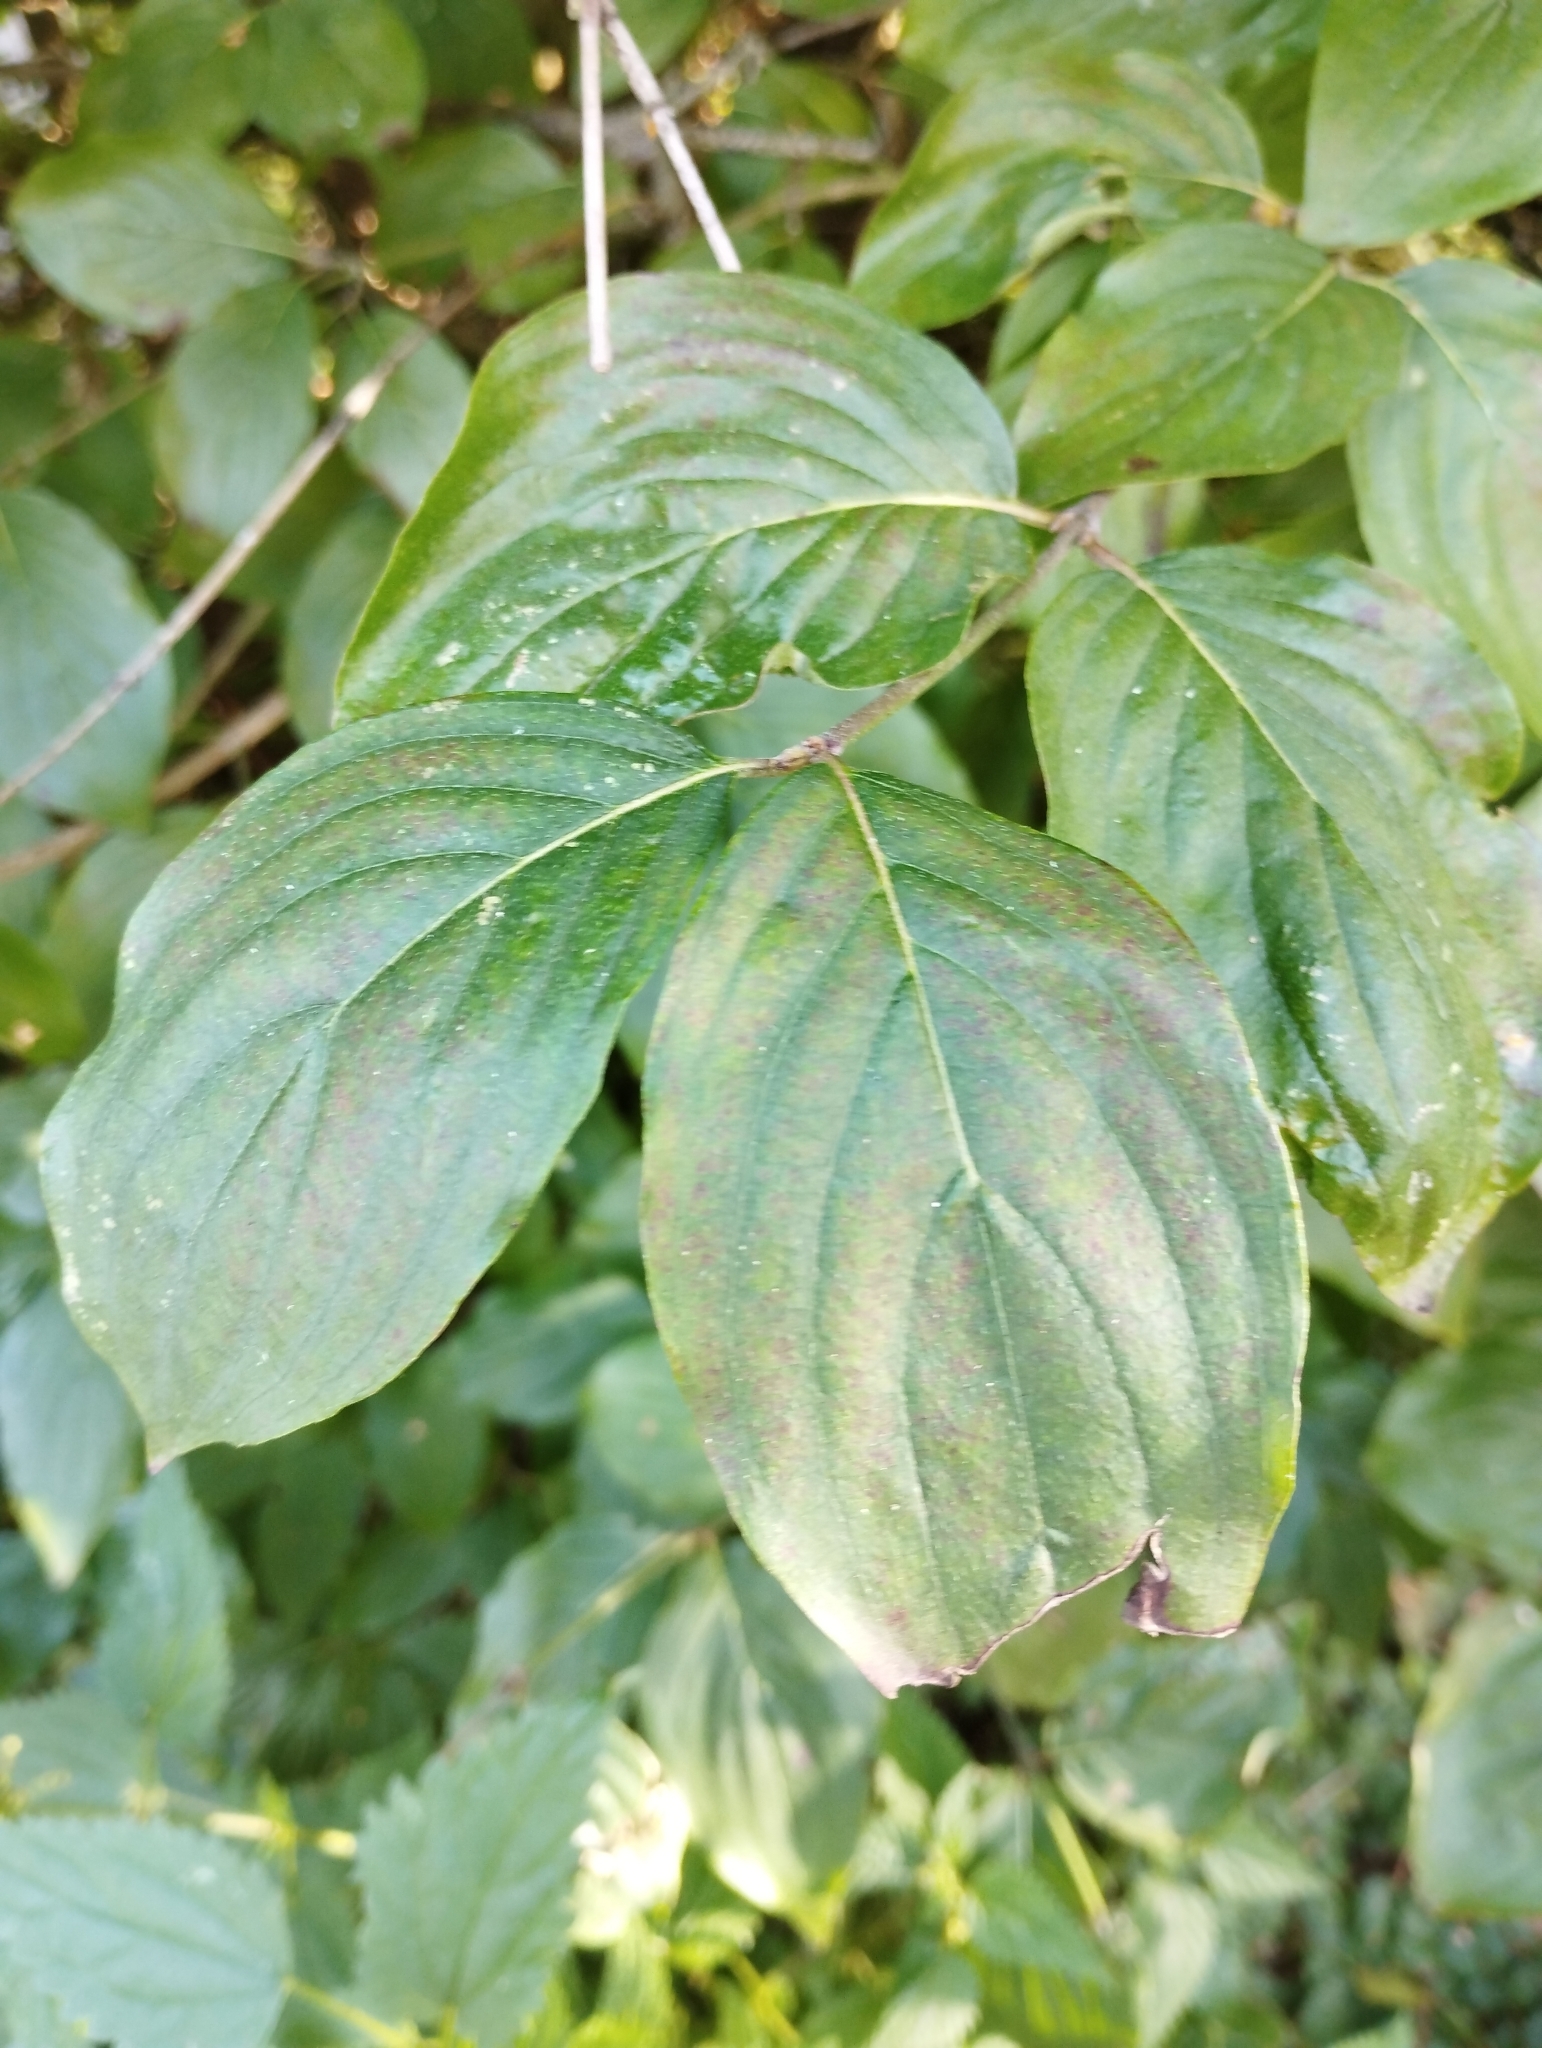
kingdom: Plantae
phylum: Tracheophyta
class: Magnoliopsida
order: Cornales
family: Cornaceae
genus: Cornus
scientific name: Cornus mas
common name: Cornelian-cherry
